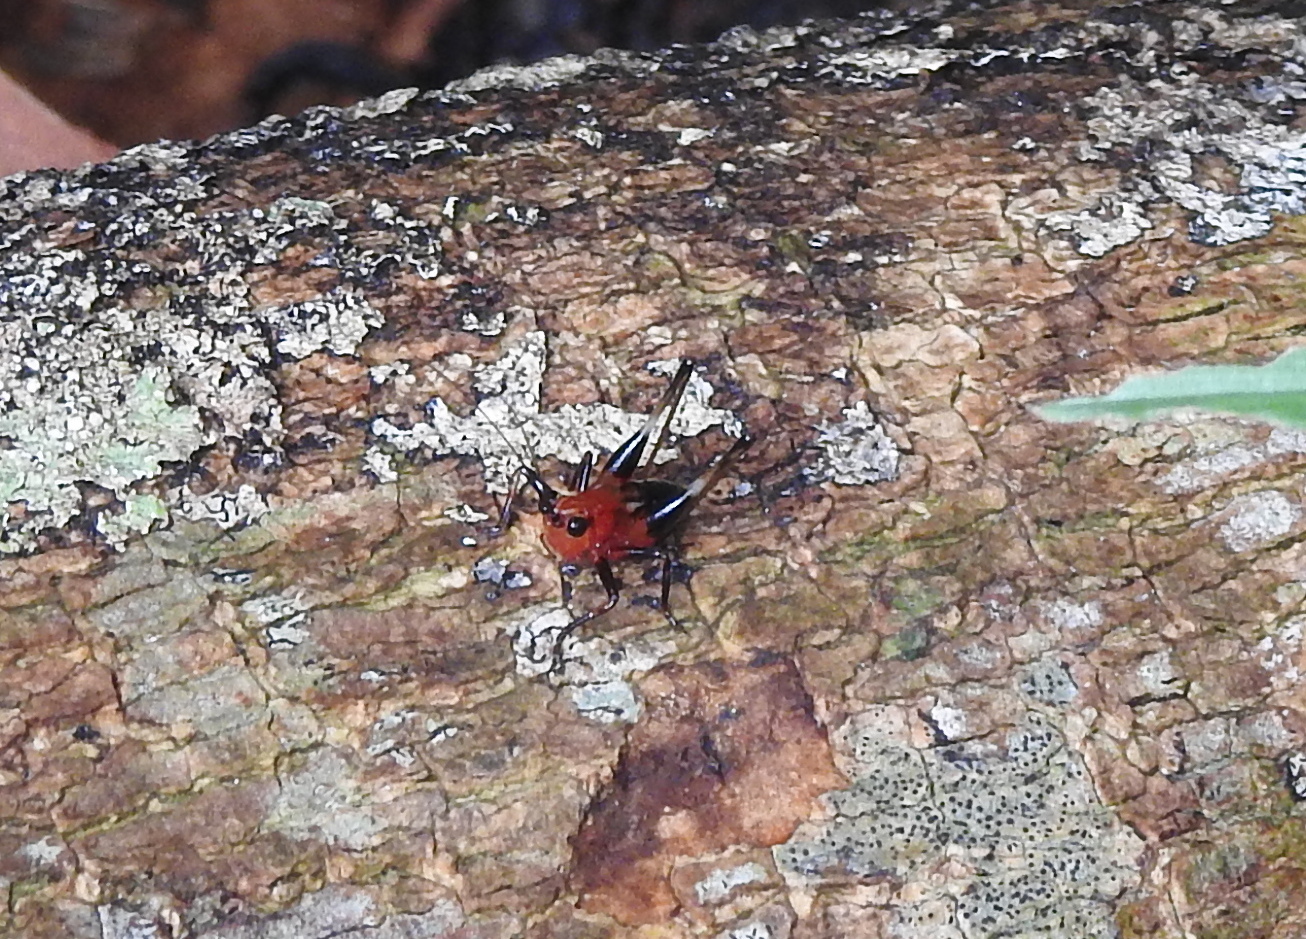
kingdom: Animalia
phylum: Arthropoda
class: Insecta
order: Orthoptera
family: Tettigoniidae
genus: Conocephalus
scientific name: Conocephalus melaenus
